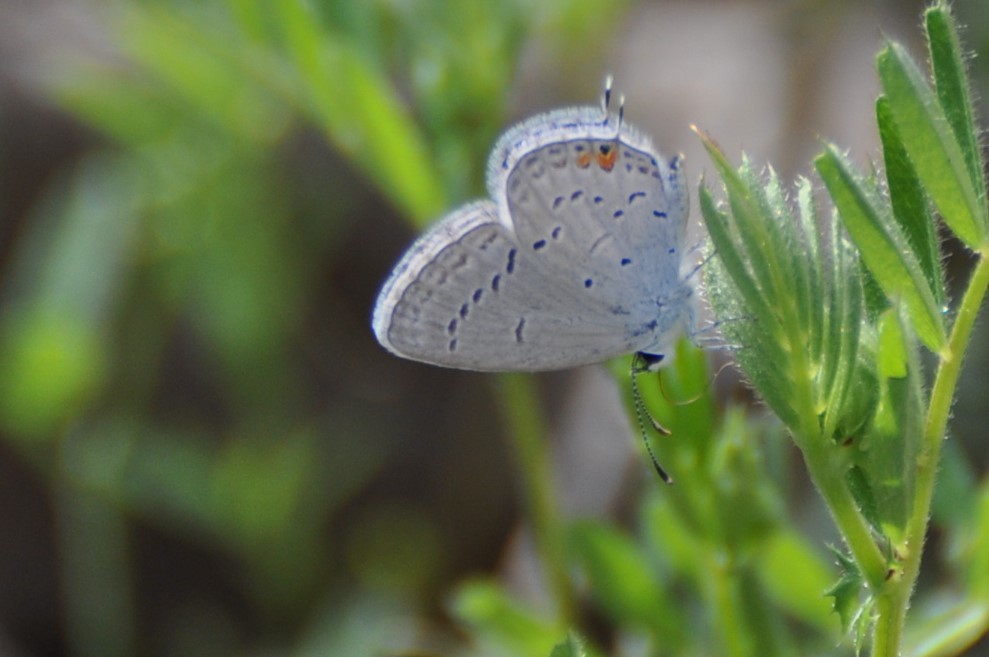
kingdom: Animalia
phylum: Arthropoda
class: Insecta
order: Lepidoptera
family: Lycaenidae
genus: Elkalyce
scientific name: Elkalyce comyntas
